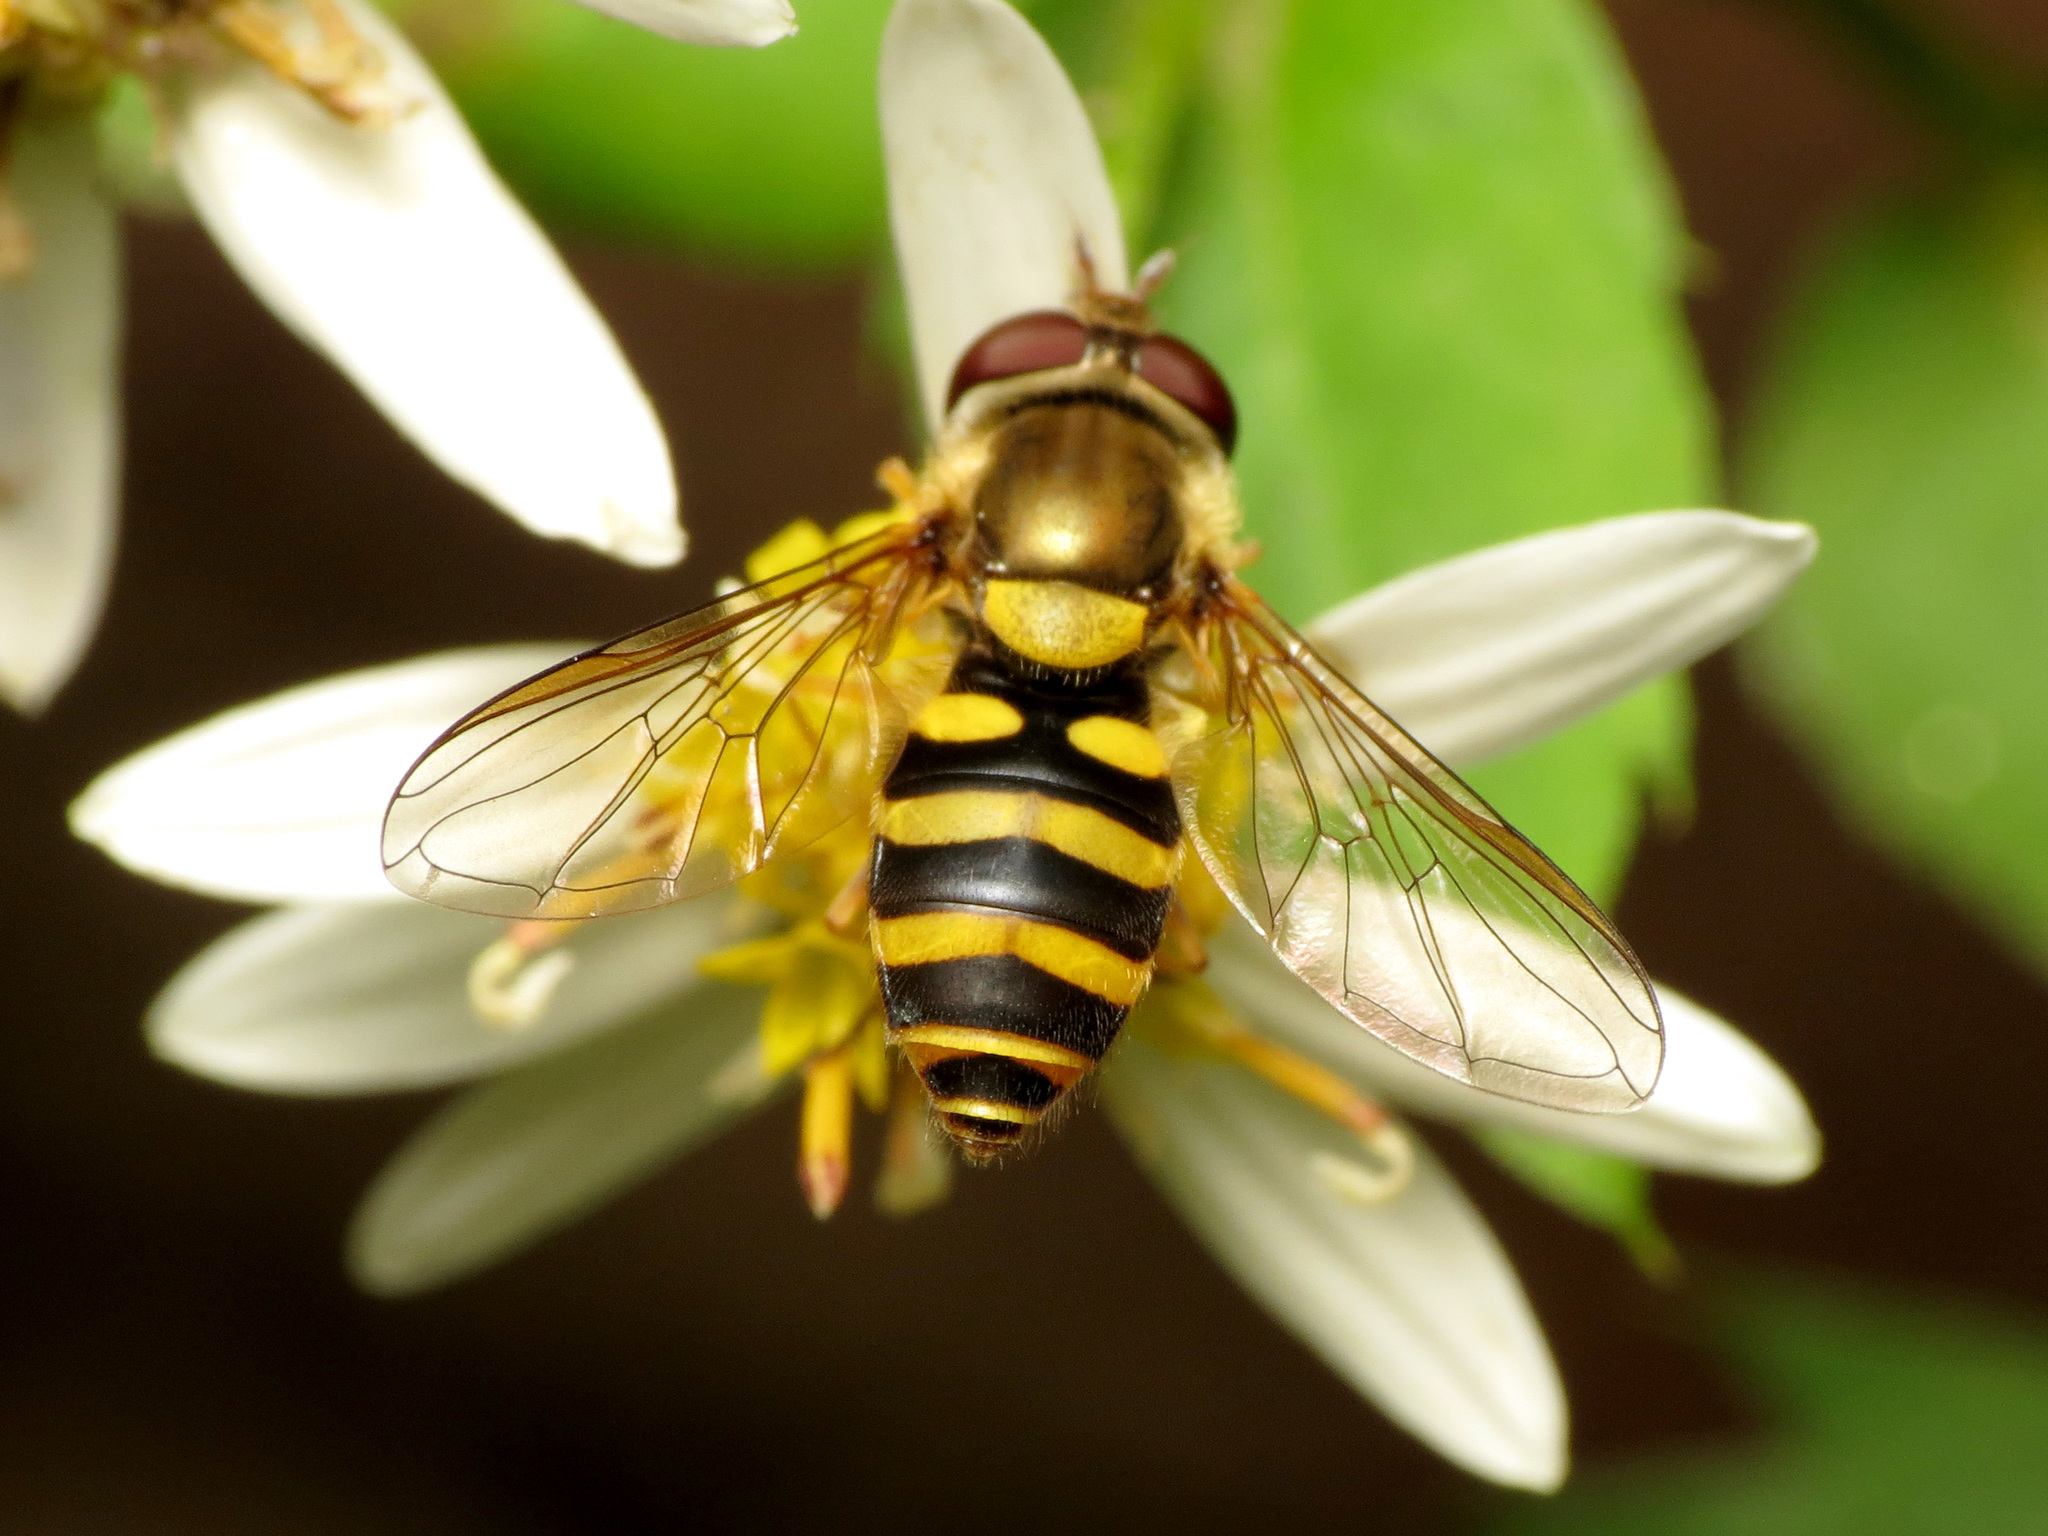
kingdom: Animalia
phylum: Arthropoda
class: Insecta
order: Diptera
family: Syrphidae
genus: Syrphus
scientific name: Syrphus
